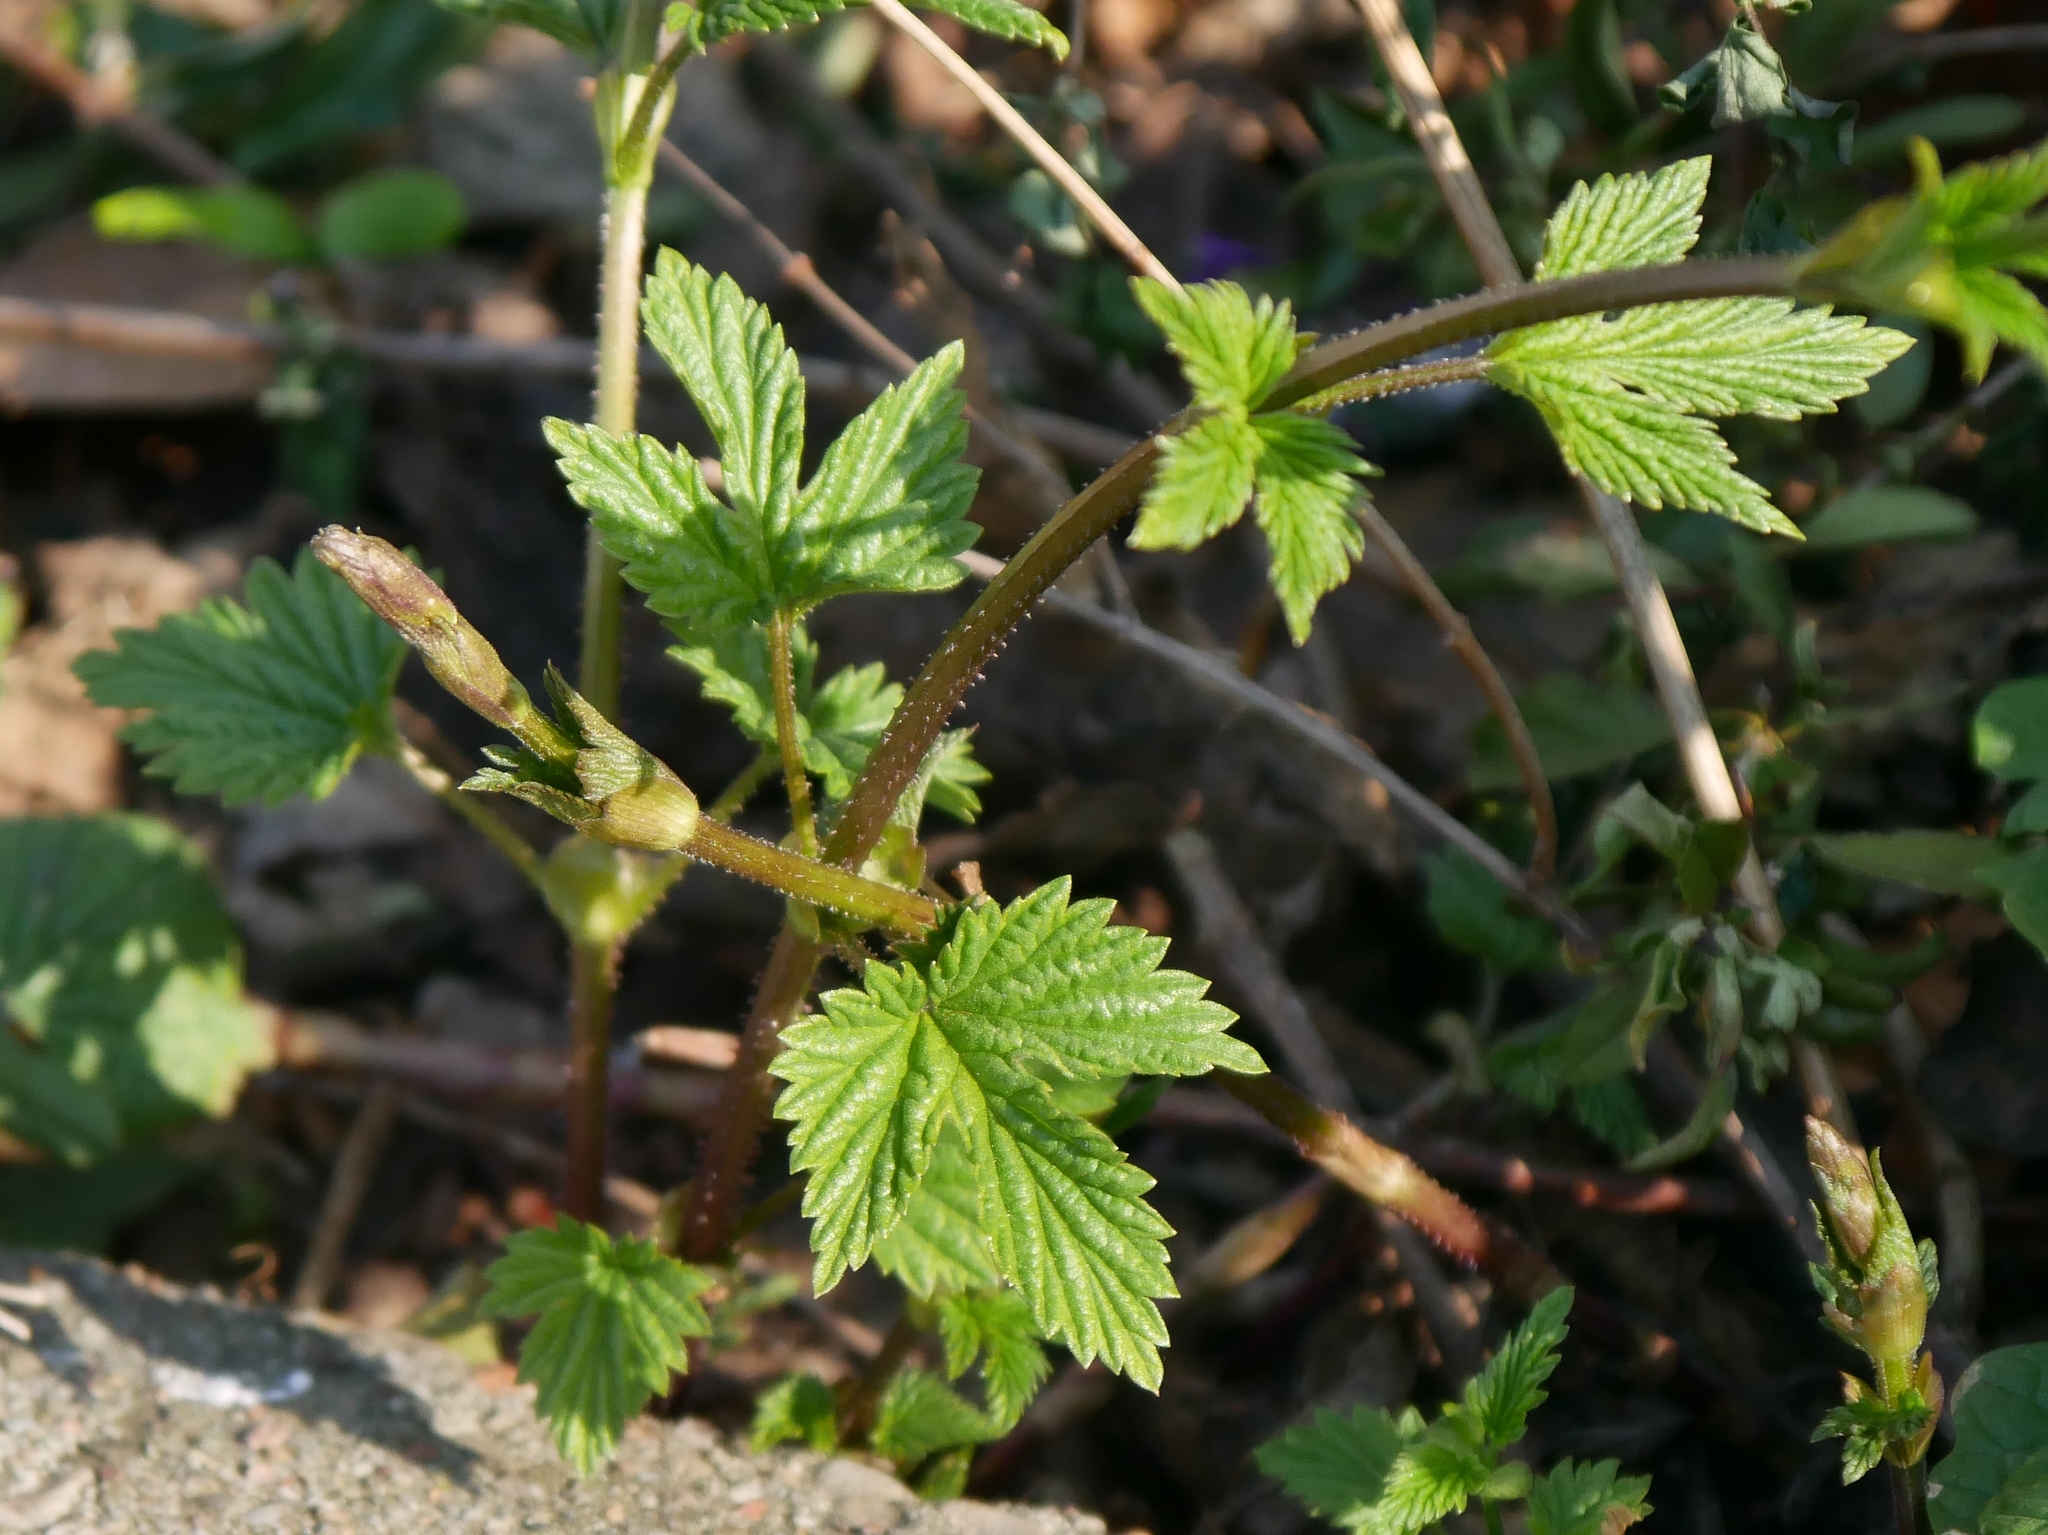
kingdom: Plantae
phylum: Tracheophyta
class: Magnoliopsida
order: Rosales
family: Cannabaceae
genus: Humulus
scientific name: Humulus lupulus
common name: Hop
